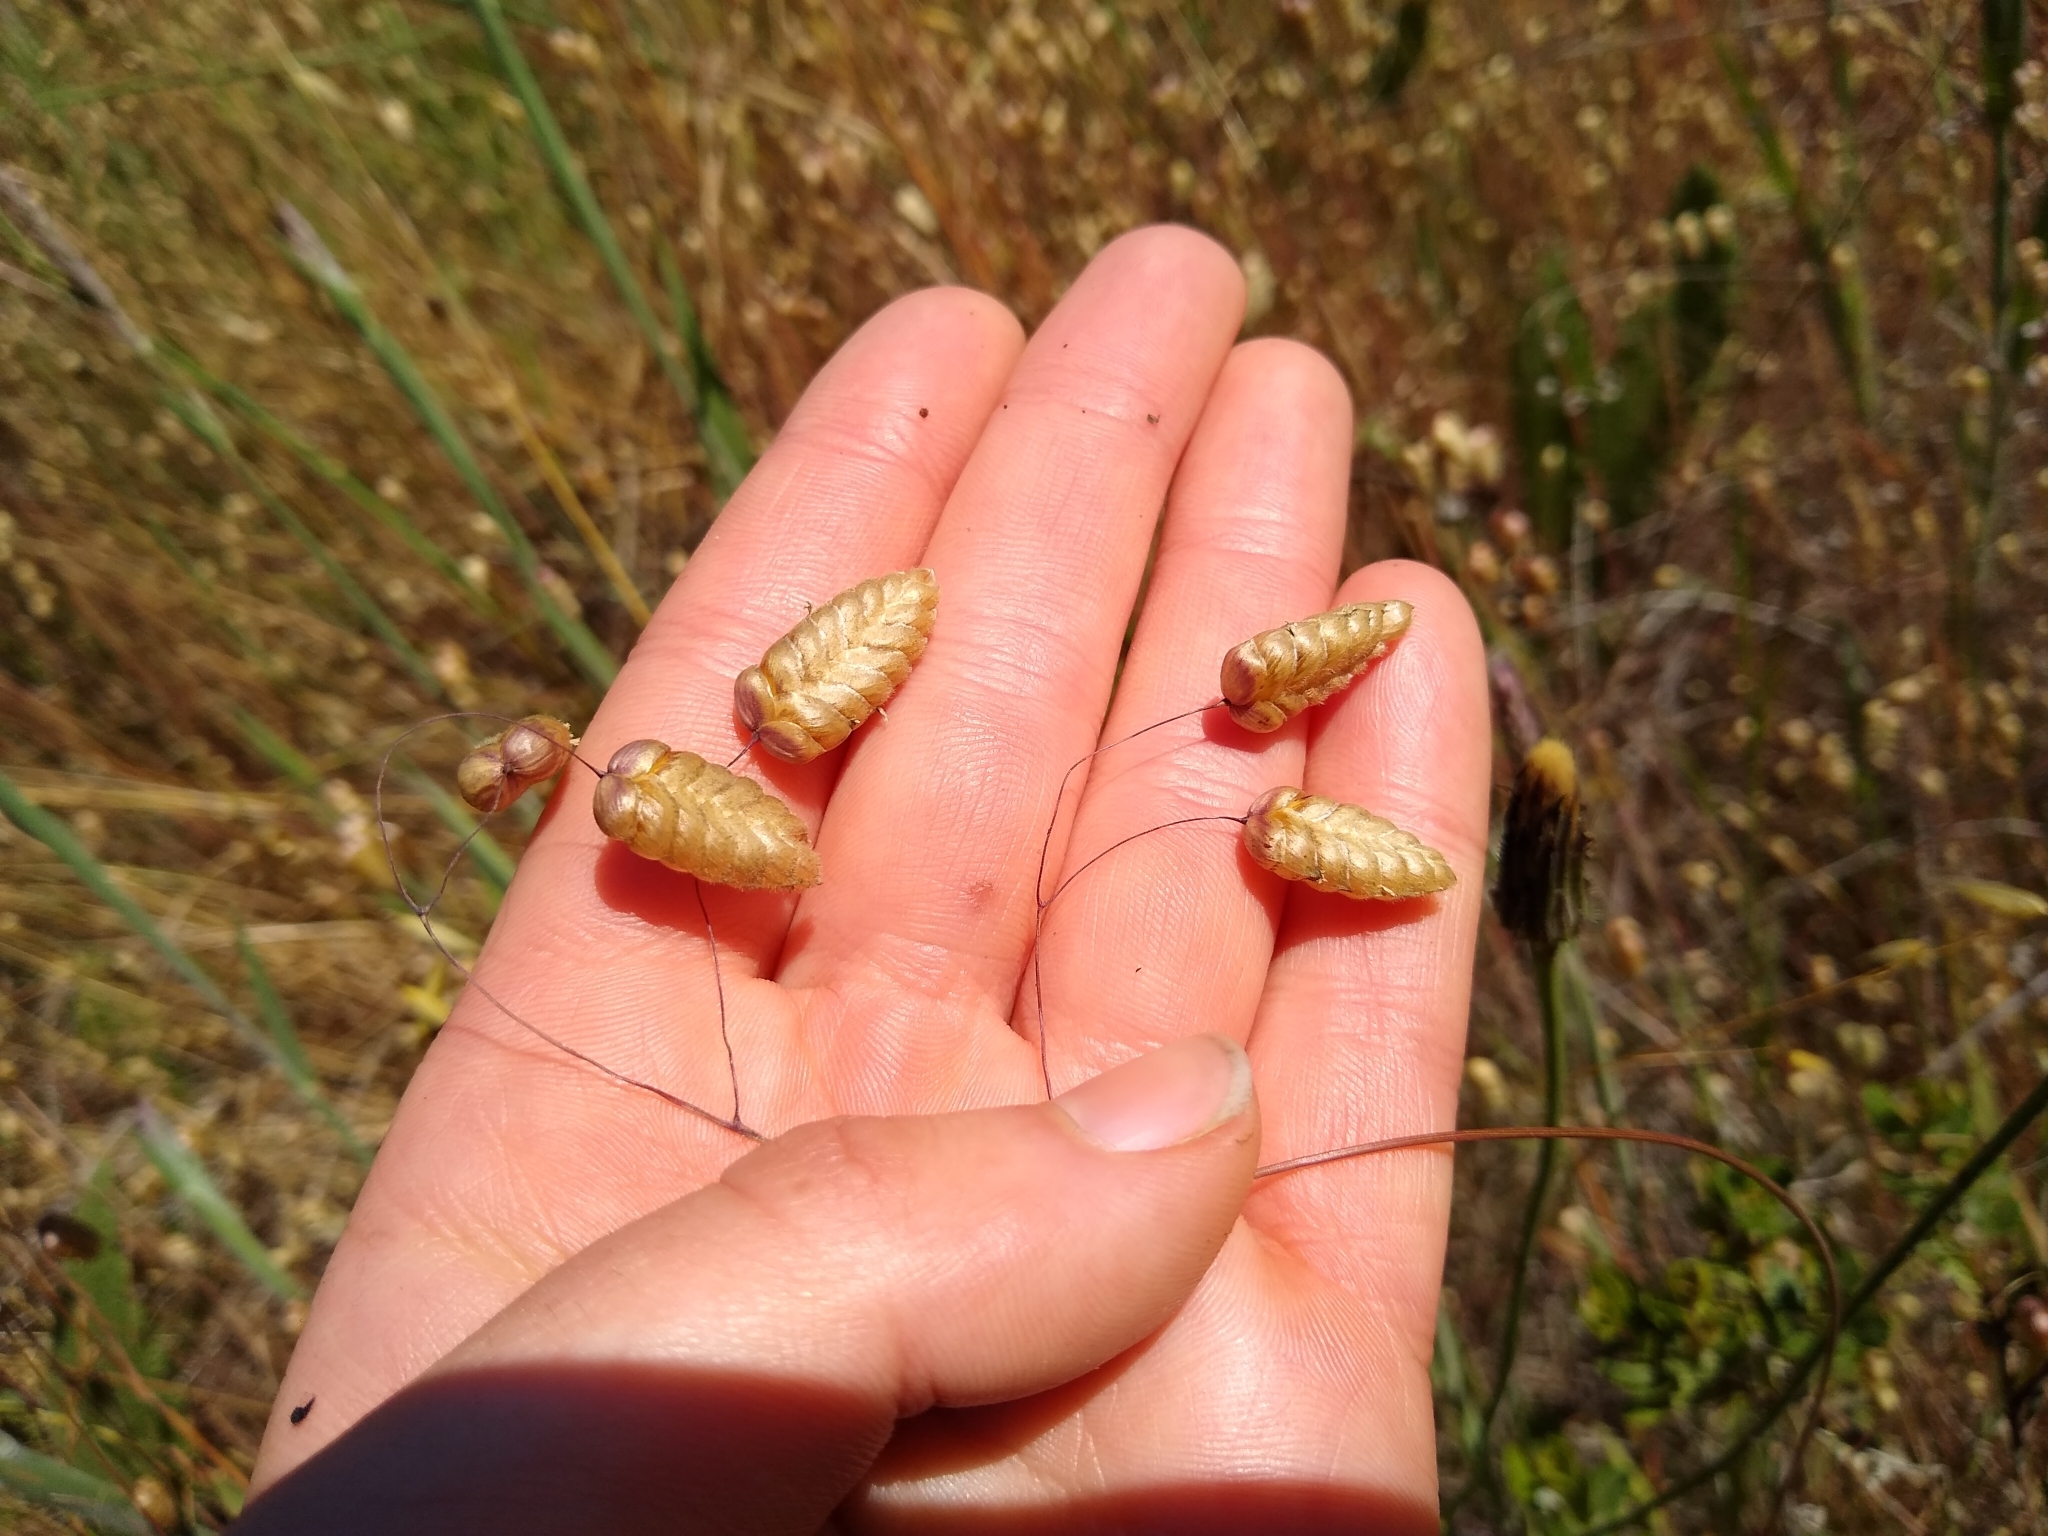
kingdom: Plantae
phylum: Tracheophyta
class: Liliopsida
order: Poales
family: Poaceae
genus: Briza
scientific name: Briza maxima
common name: Big quakinggrass
